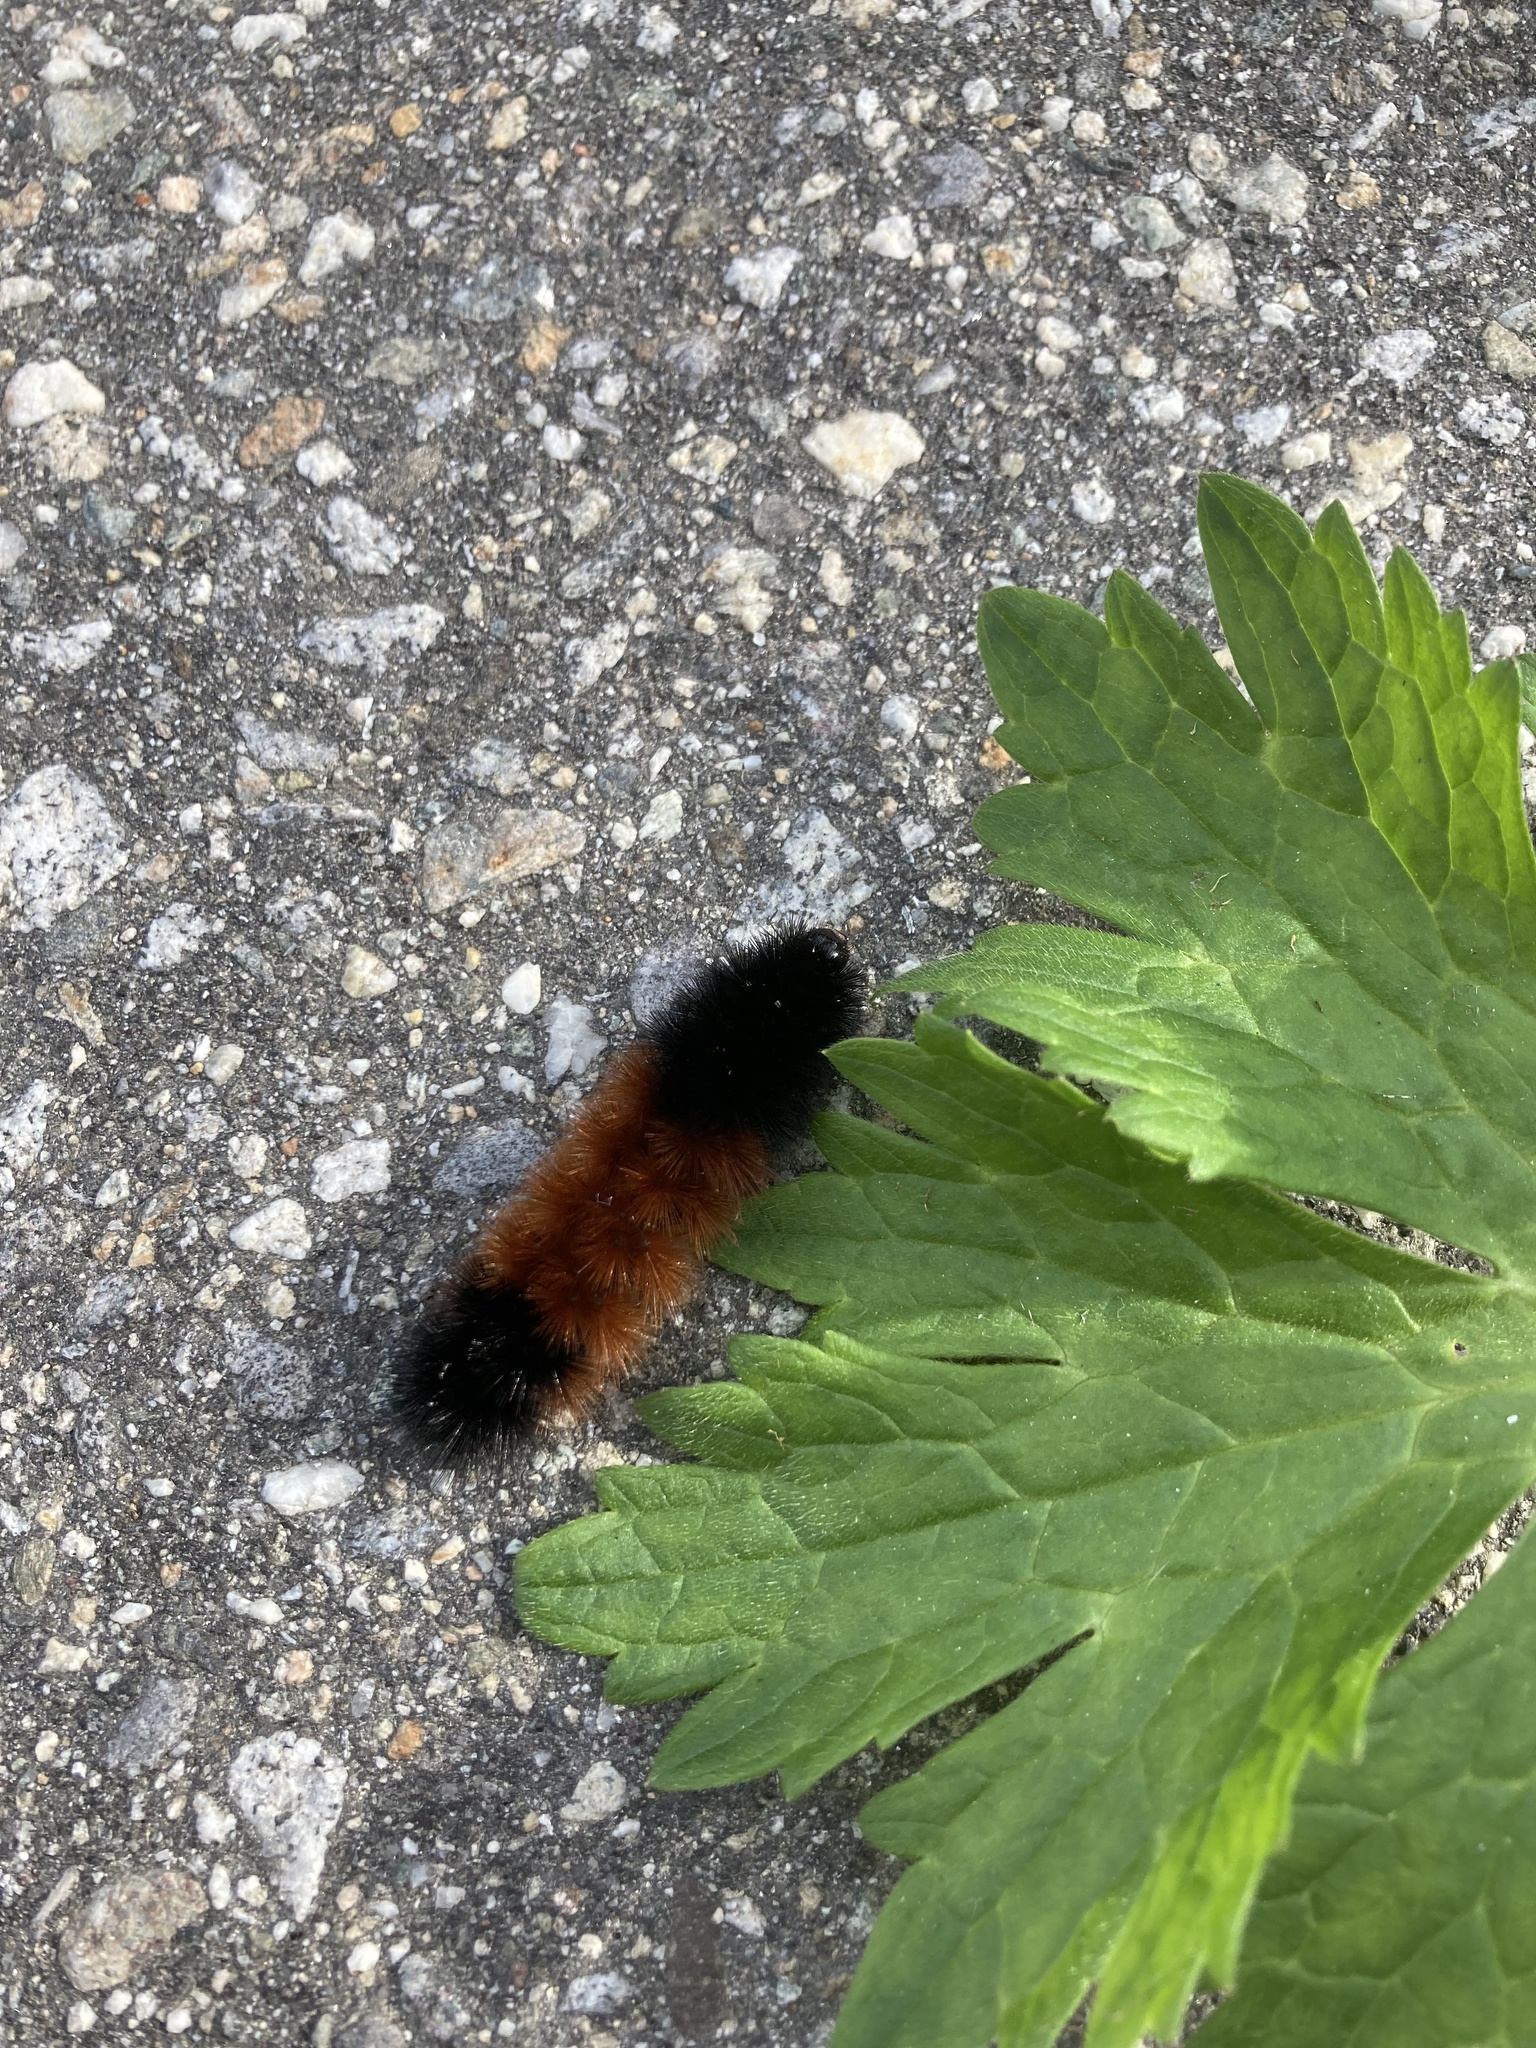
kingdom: Animalia
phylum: Arthropoda
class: Insecta
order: Lepidoptera
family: Erebidae
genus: Pyrrharctia
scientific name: Pyrrharctia isabella
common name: Isabella tiger moth
